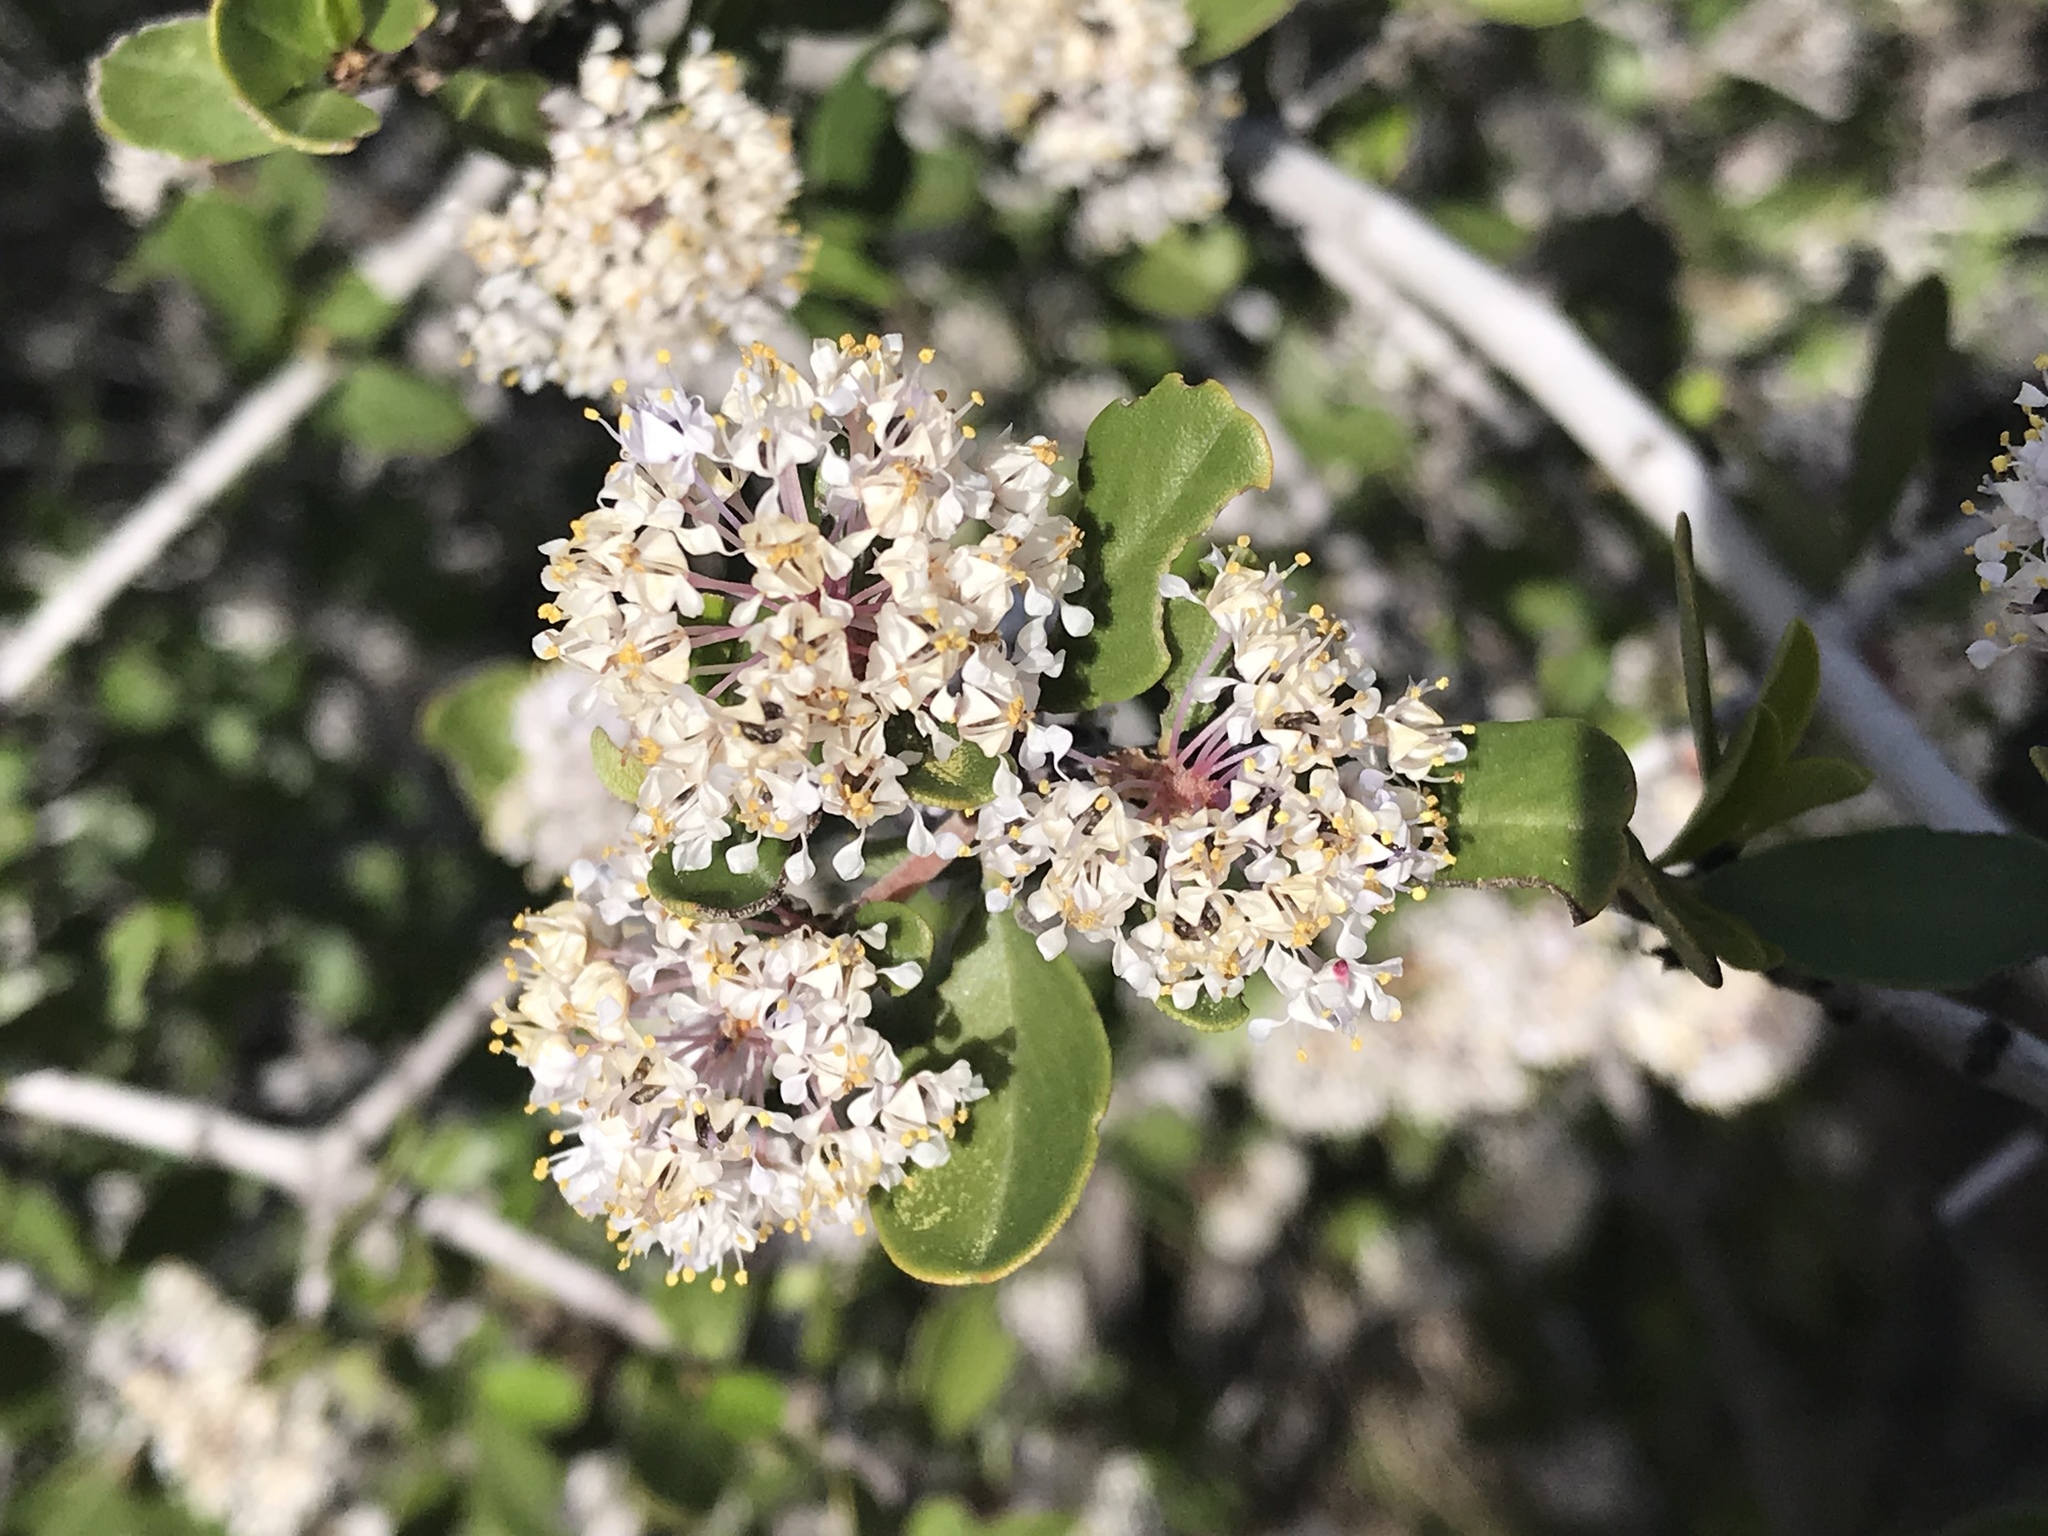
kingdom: Plantae
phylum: Tracheophyta
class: Magnoliopsida
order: Rosales
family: Rhamnaceae
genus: Ceanothus
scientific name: Ceanothus cuneatus
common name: Cuneate ceanothus
